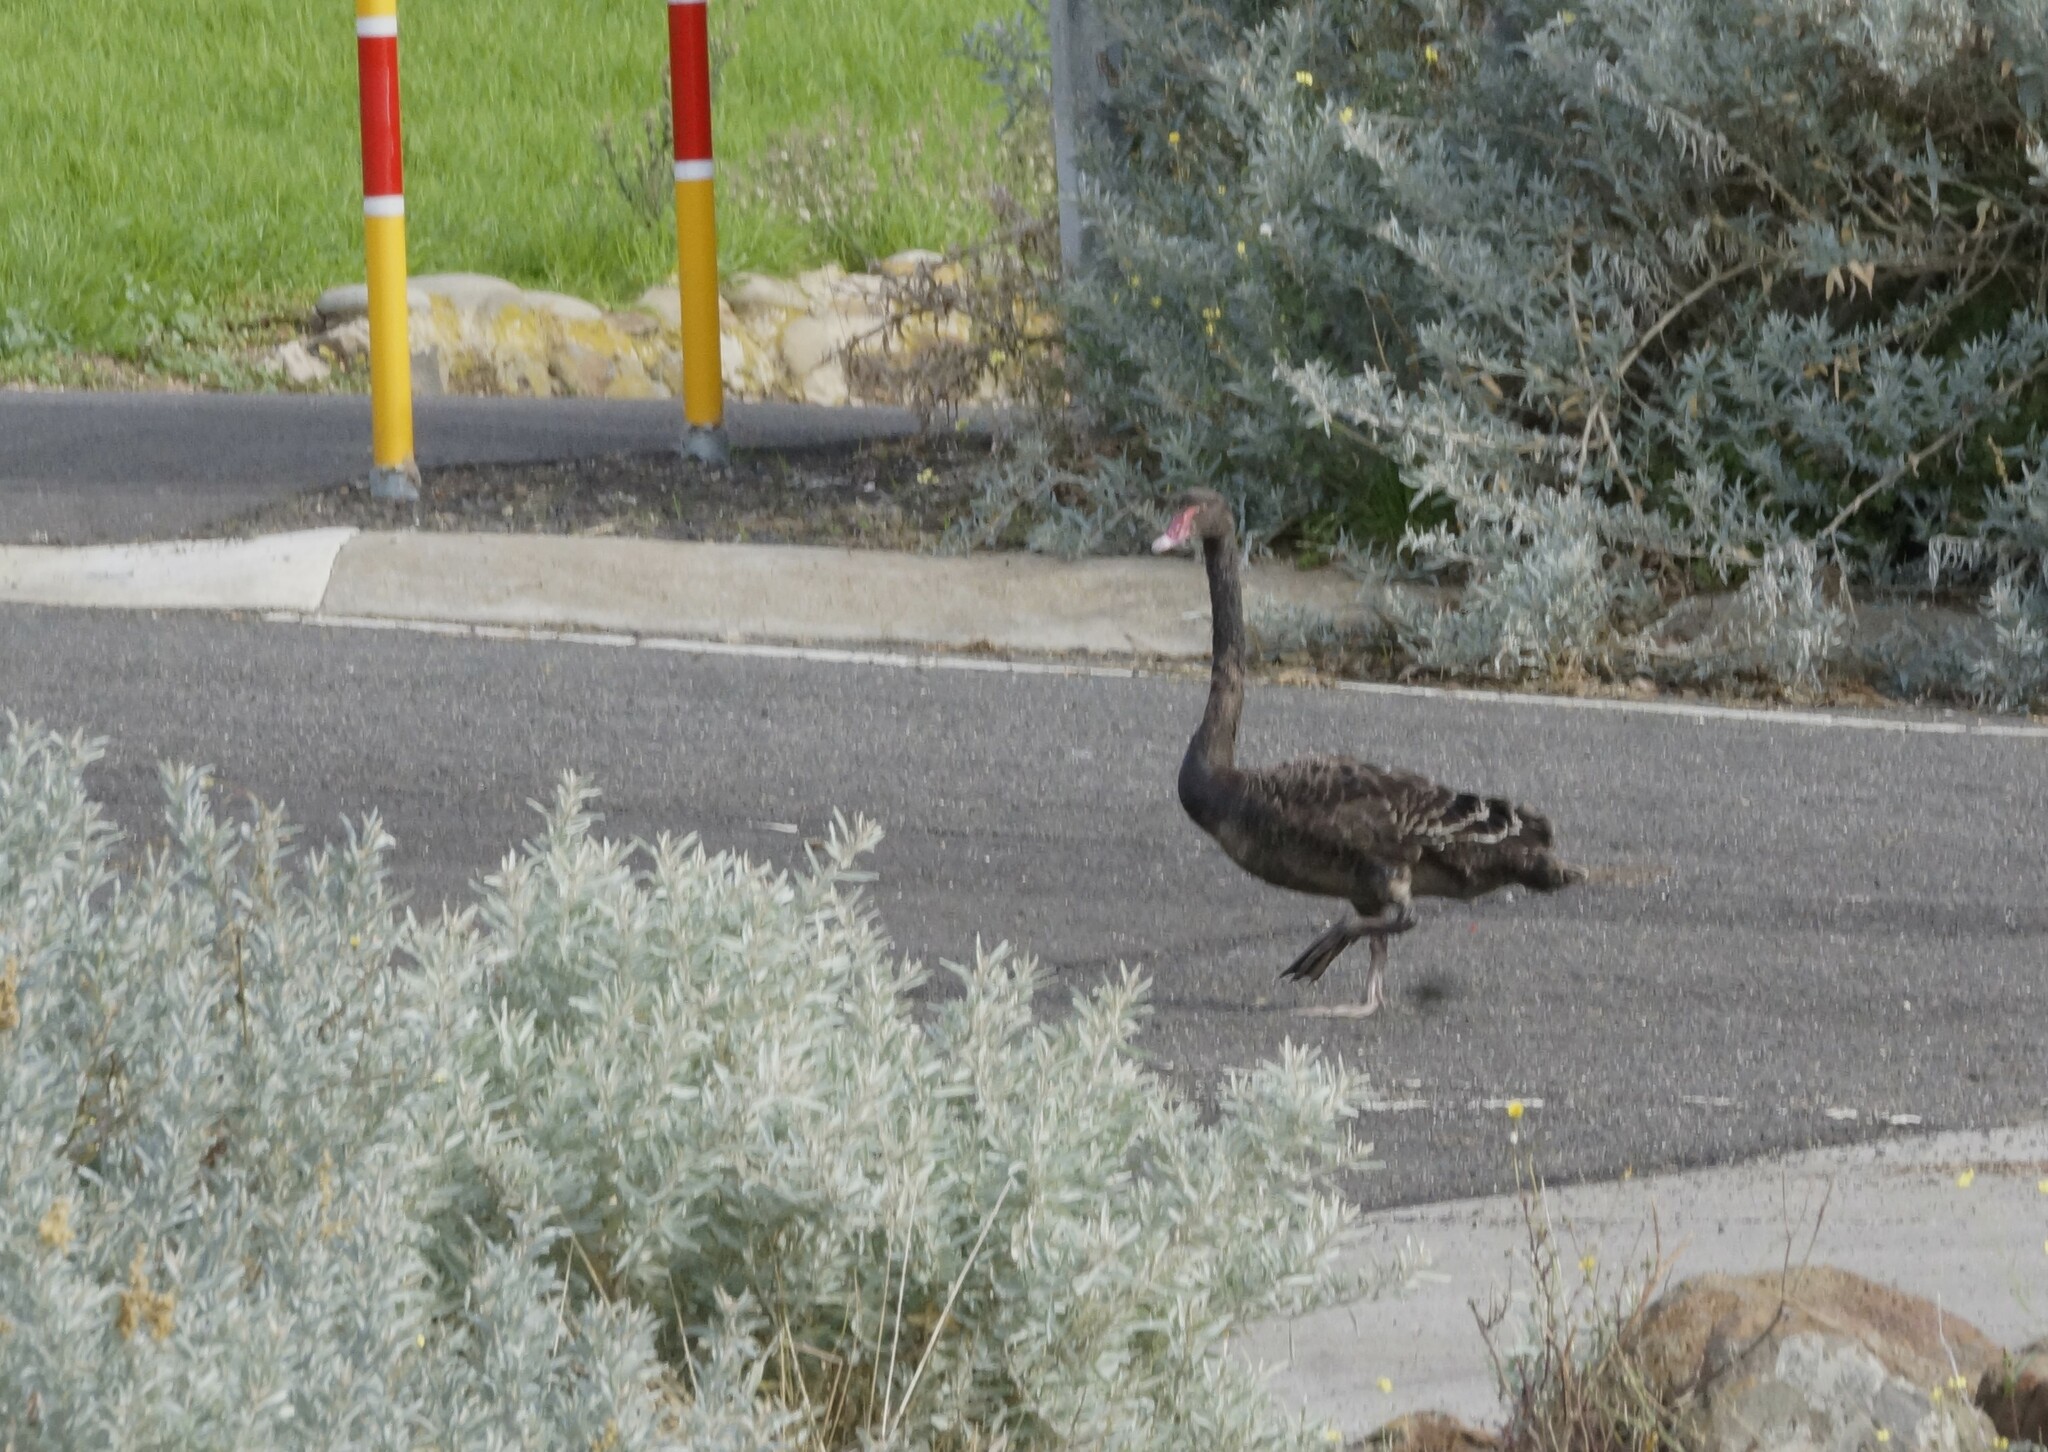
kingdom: Animalia
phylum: Chordata
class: Aves
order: Anseriformes
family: Anatidae
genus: Cygnus
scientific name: Cygnus atratus
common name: Black swan
